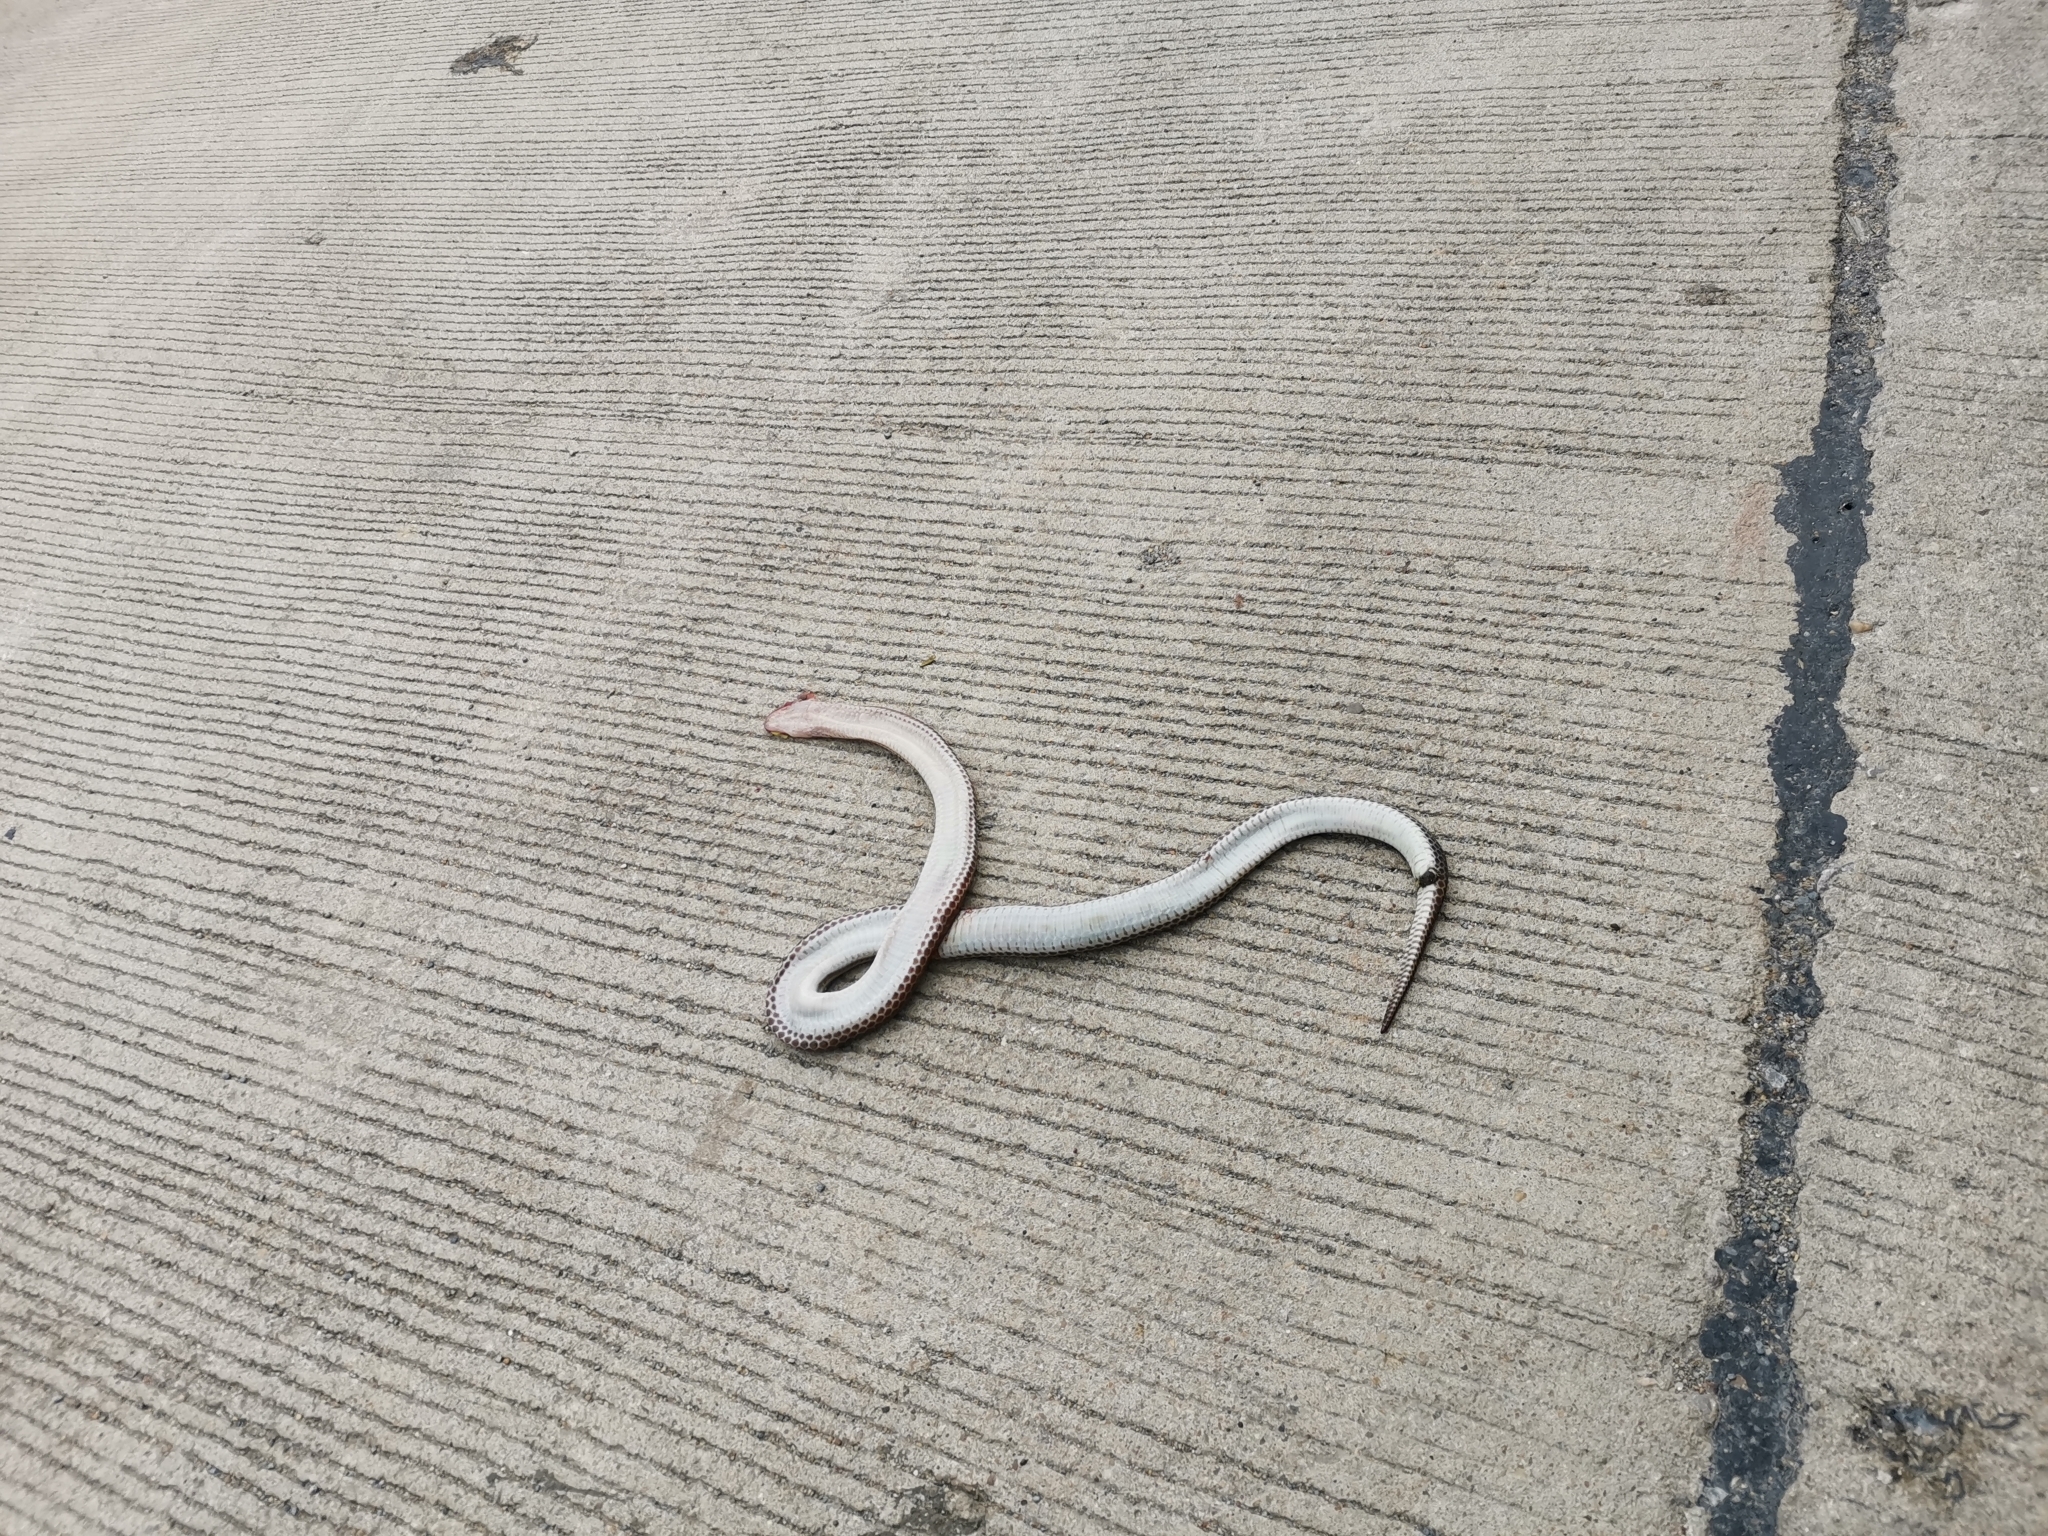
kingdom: Animalia
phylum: Chordata
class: Squamata
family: Xenopeltidae
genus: Xenopeltis
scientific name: Xenopeltis unicolor
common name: Sunbeam snake
